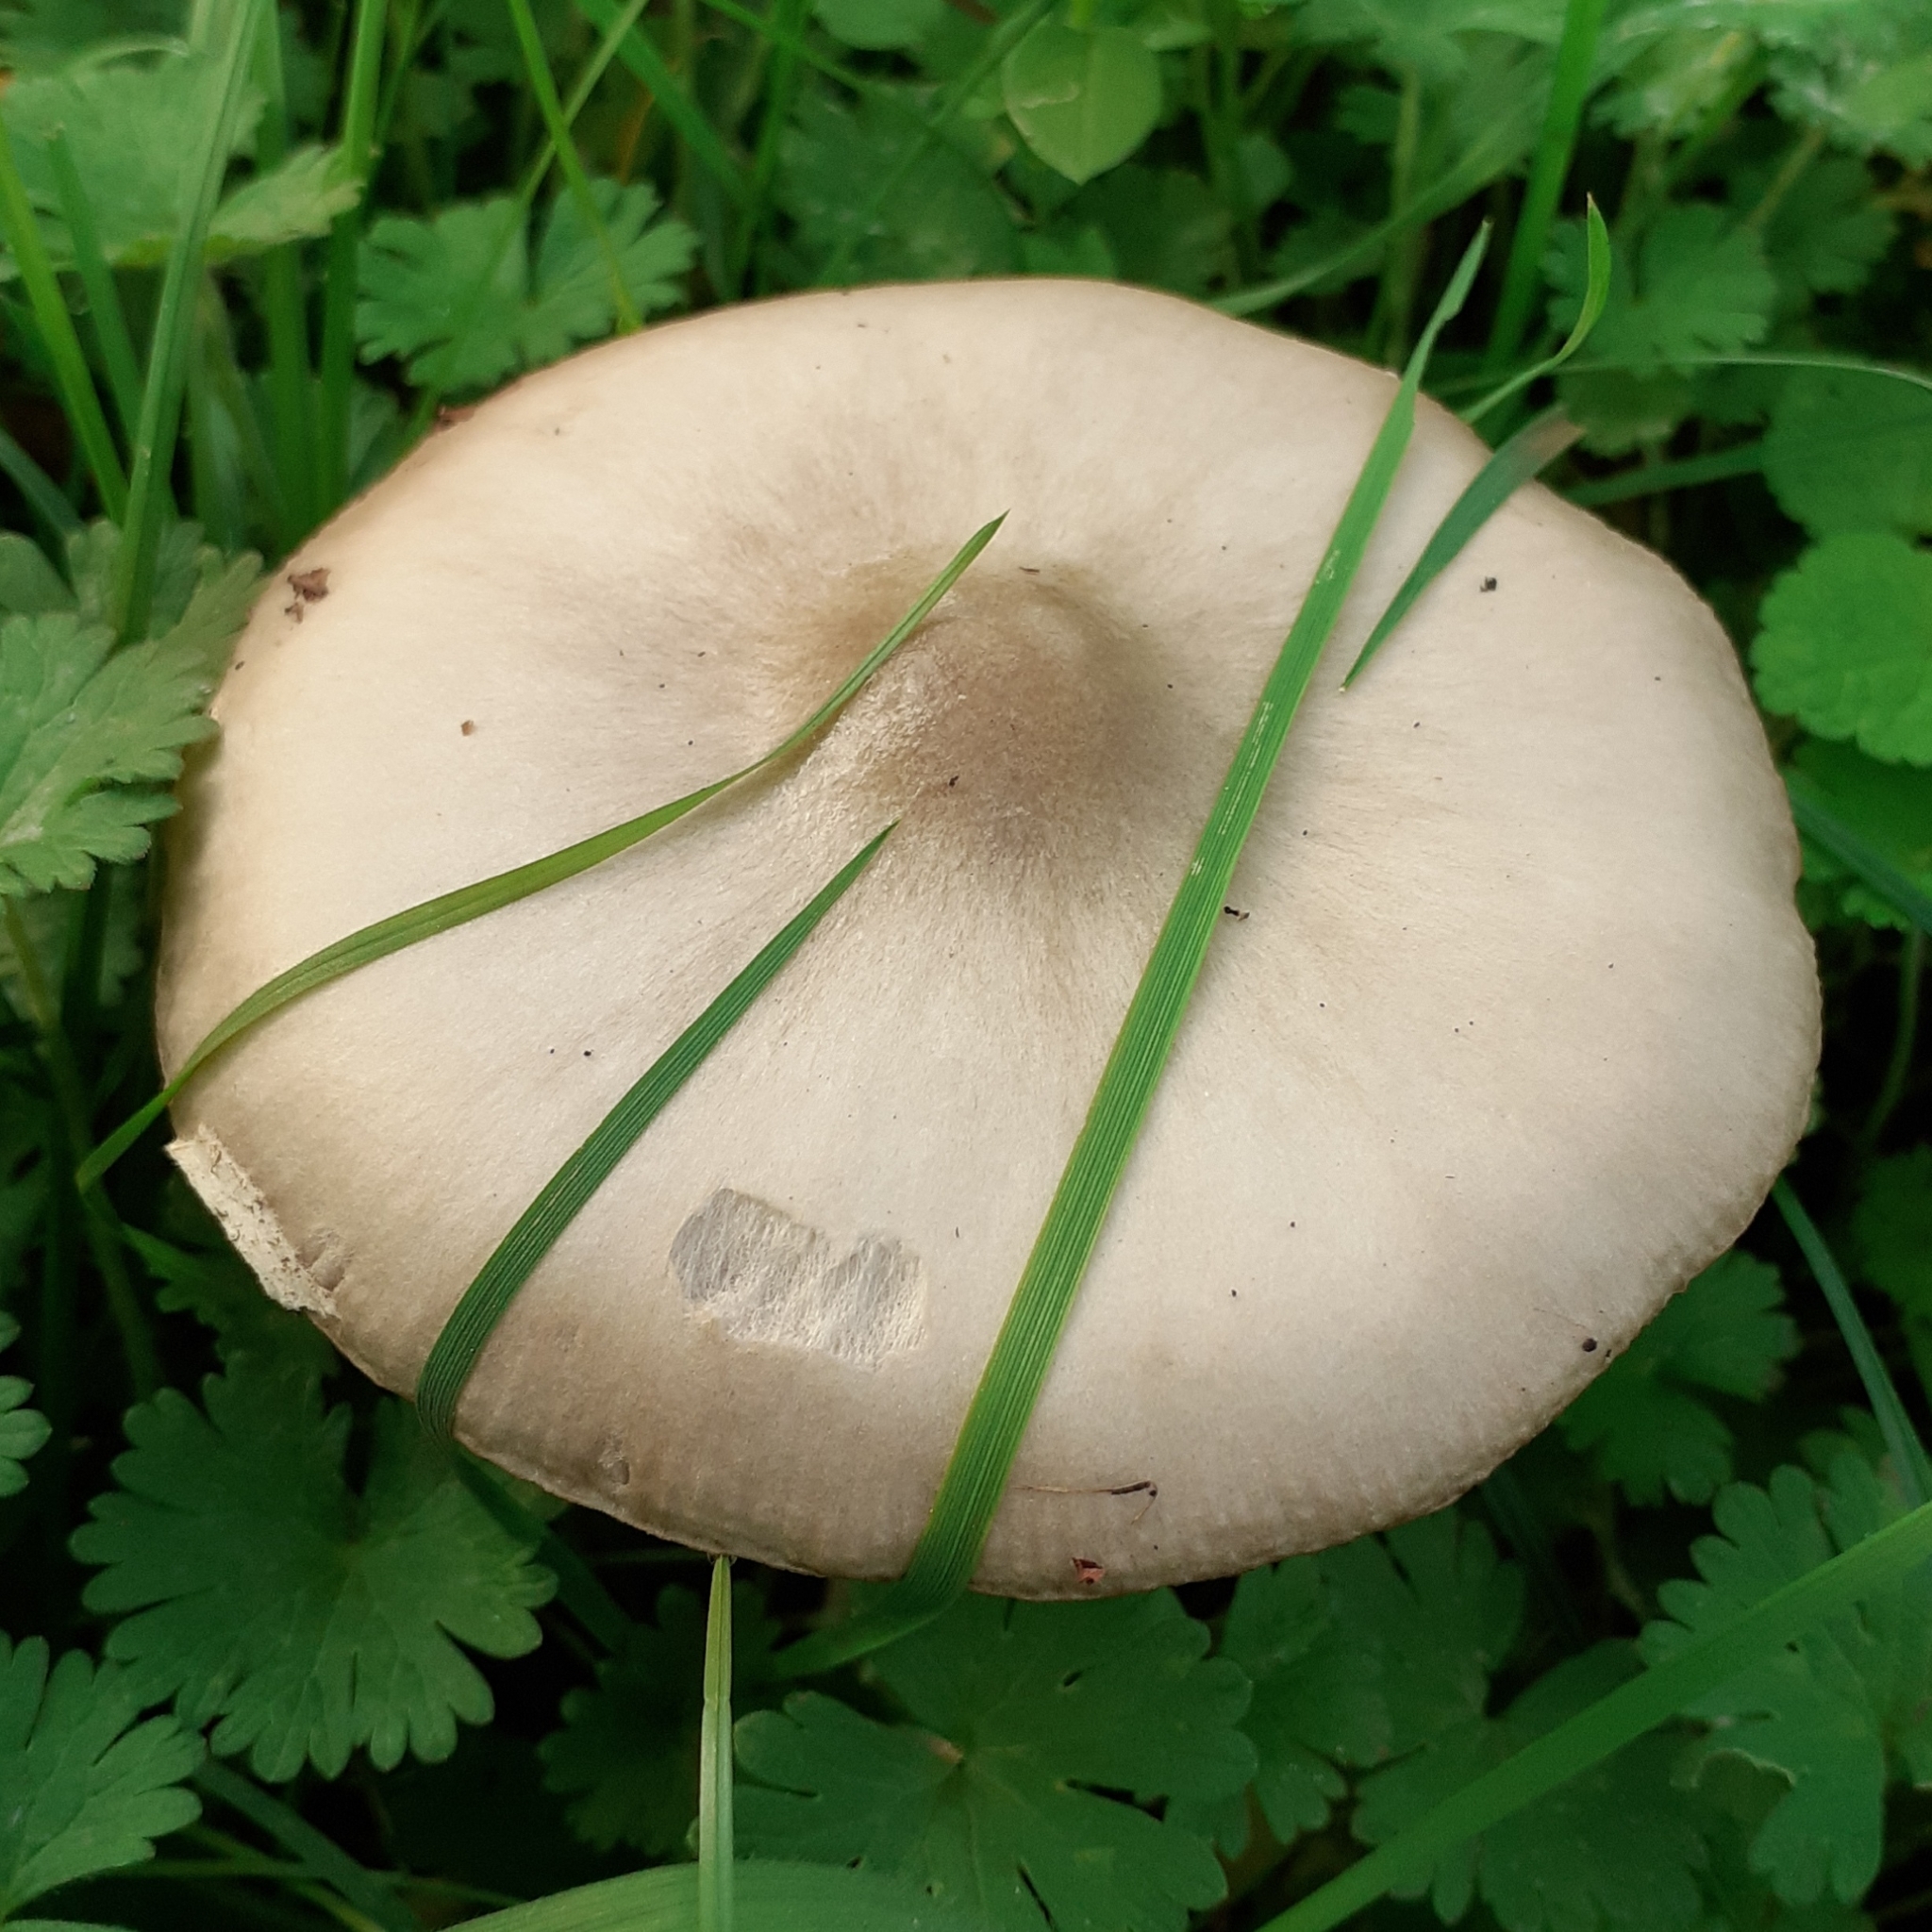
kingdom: Fungi
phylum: Basidiomycota
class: Agaricomycetes
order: Agaricales
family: Pluteaceae
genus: Volvopluteus
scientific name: Volvopluteus gloiocephalus
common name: Stubble rosegill
